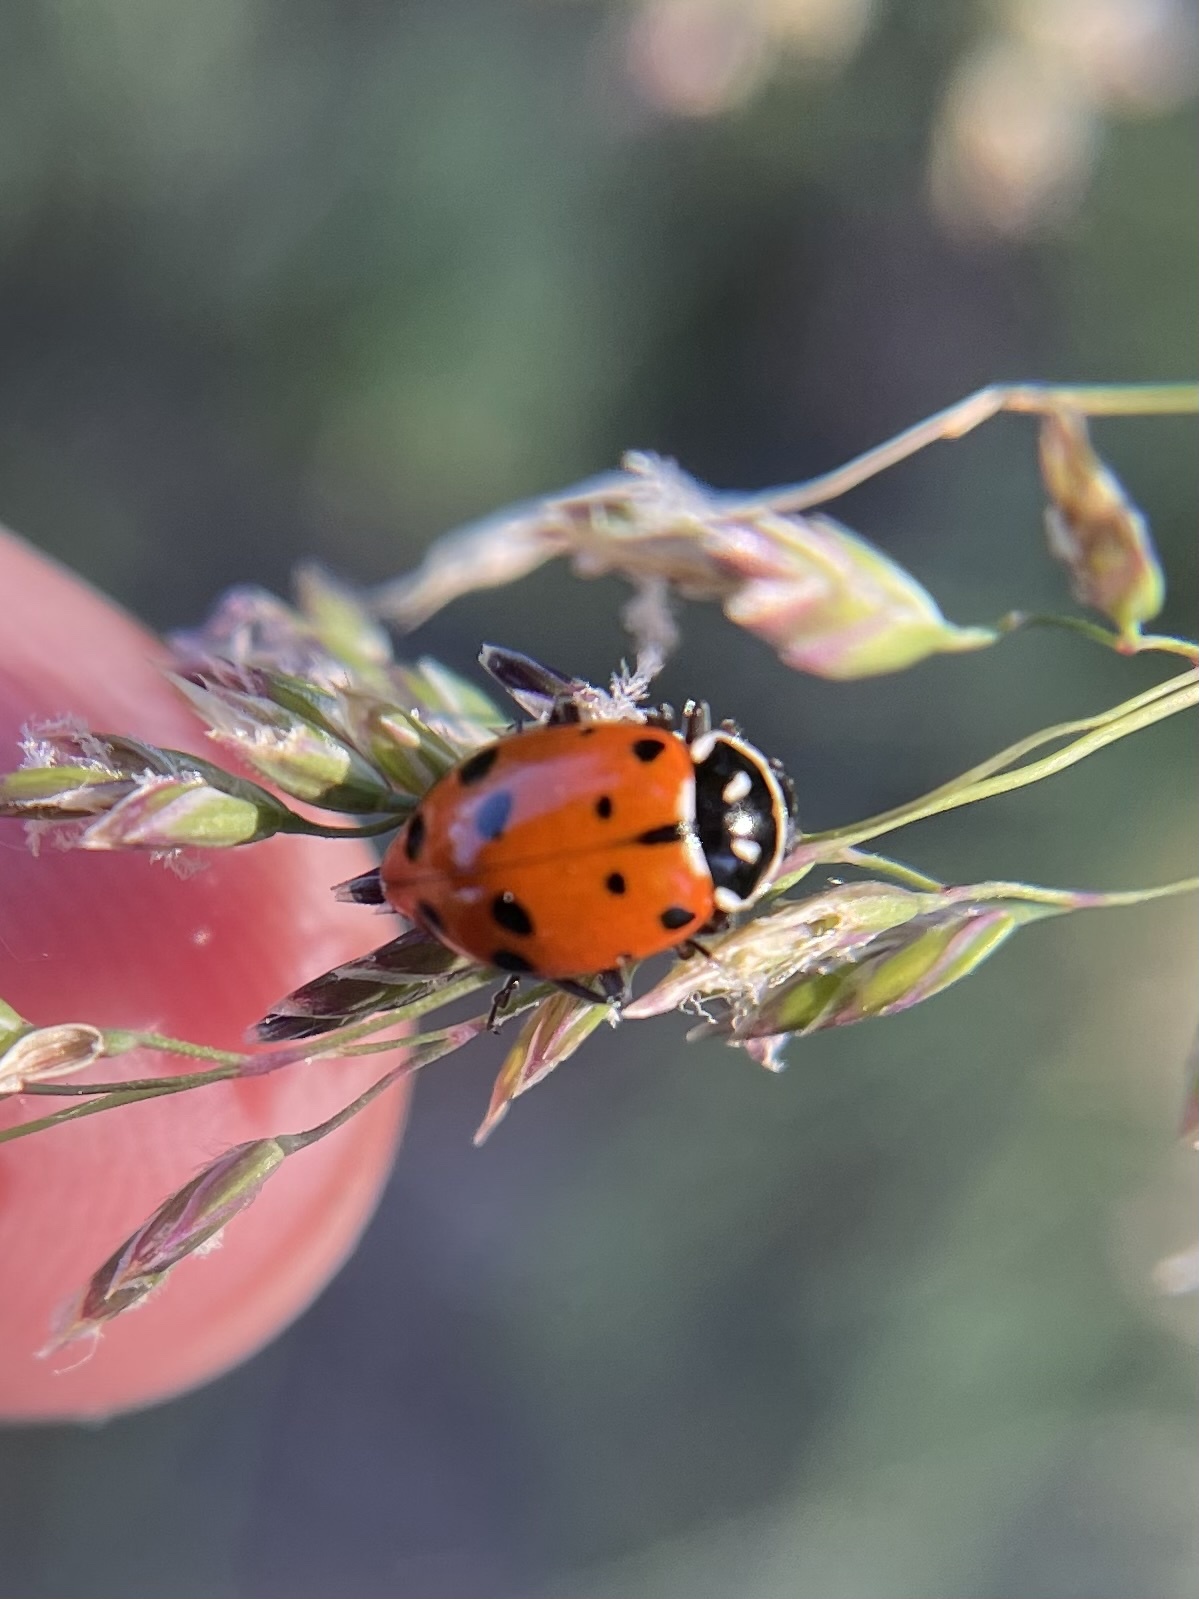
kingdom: Animalia
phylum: Arthropoda
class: Insecta
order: Coleoptera
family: Coccinellidae
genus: Hippodamia
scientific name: Hippodamia convergens
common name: Convergent lady beetle
